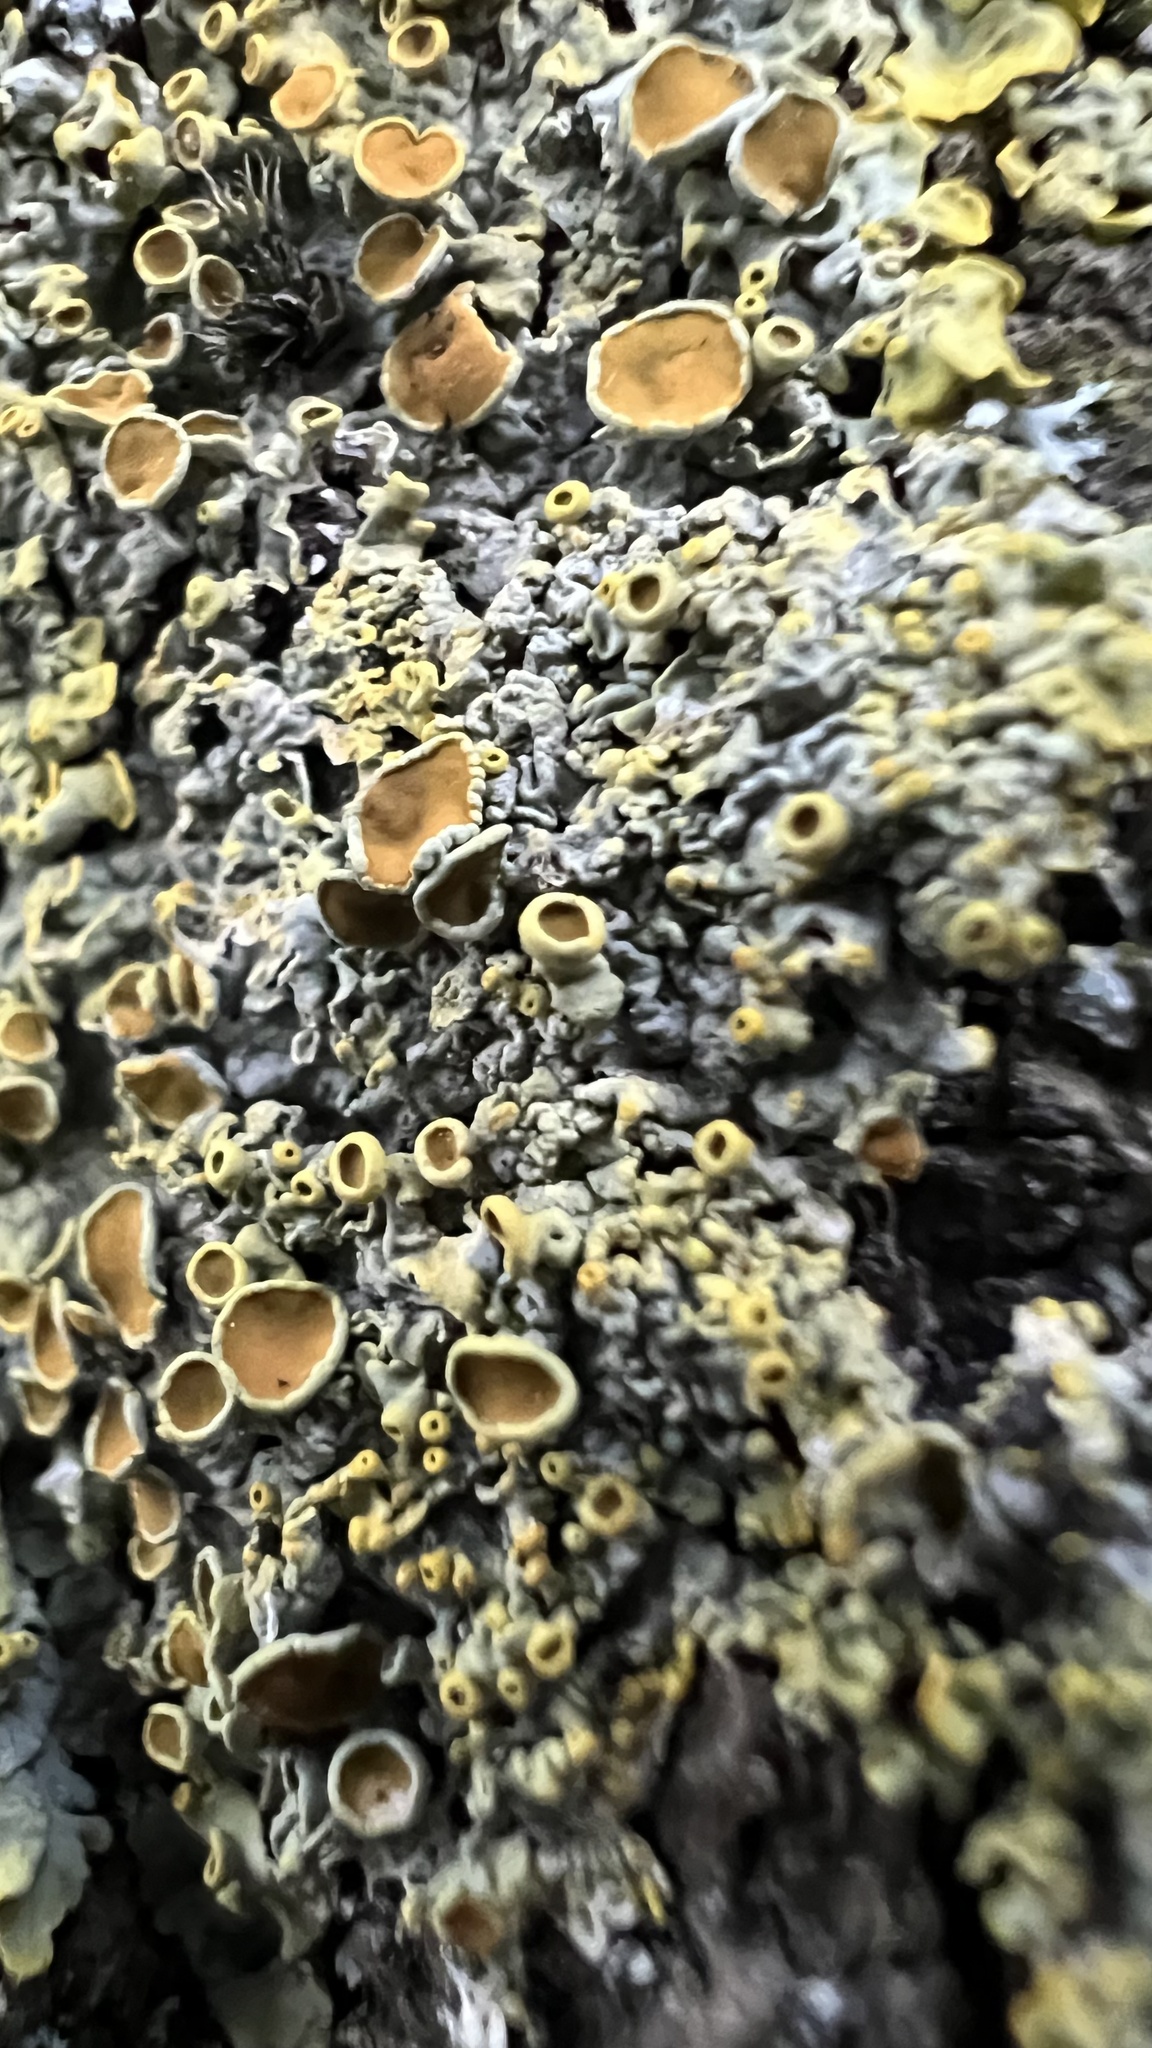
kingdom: Fungi
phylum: Ascomycota
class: Lecanoromycetes
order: Teloschistales
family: Teloschistaceae
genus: Xanthoria
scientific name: Xanthoria parietina
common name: Common orange lichen
